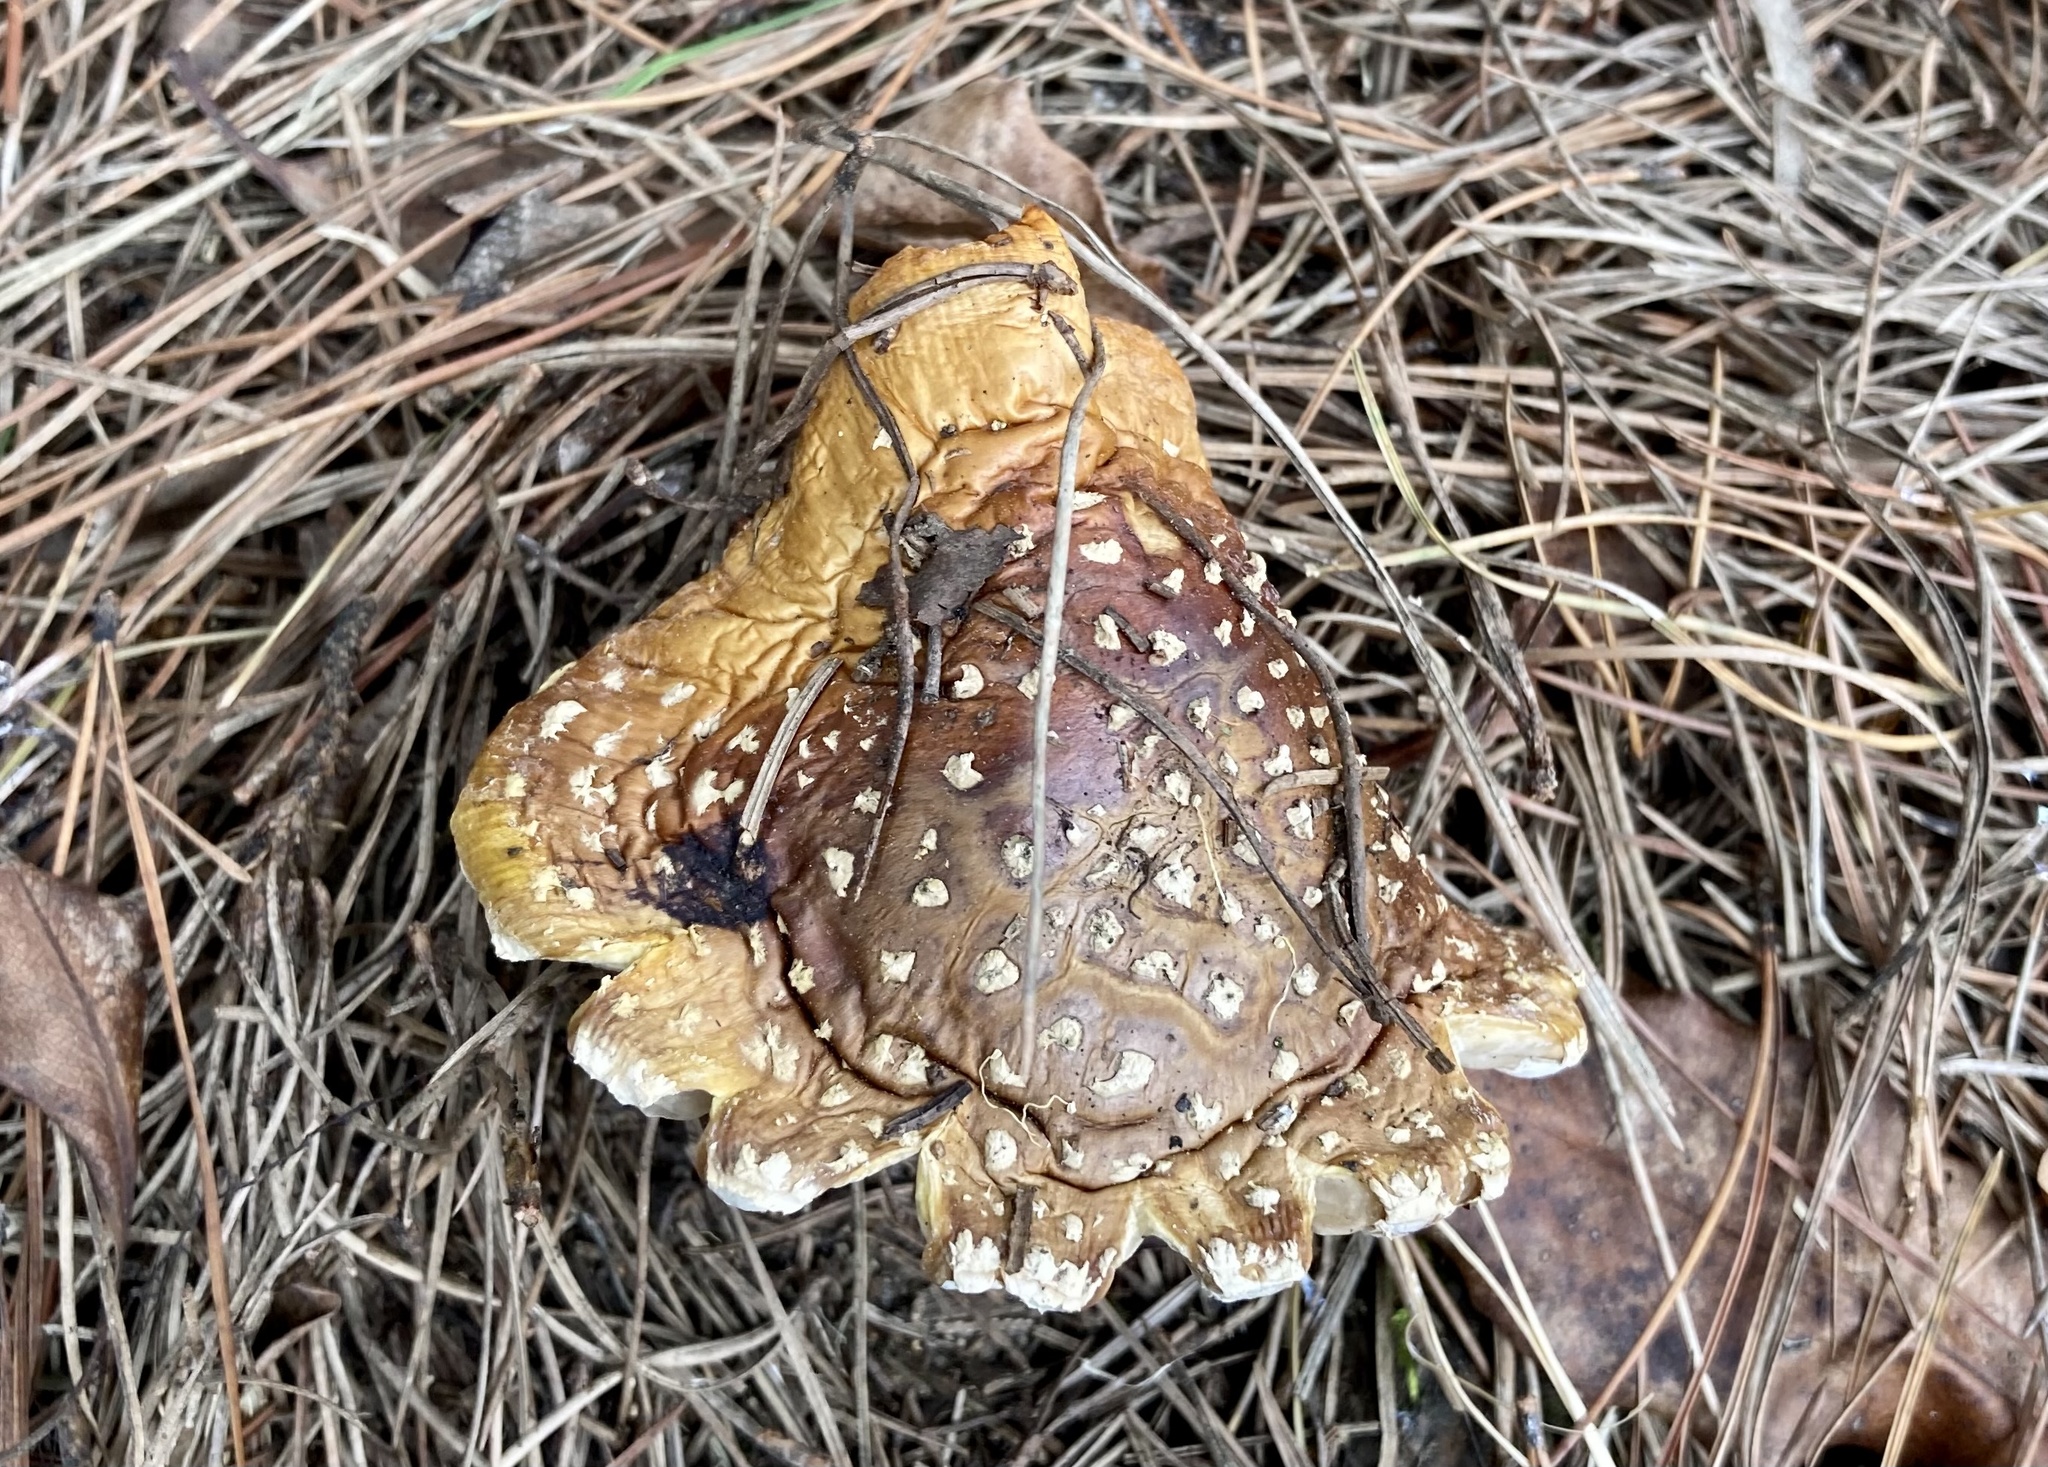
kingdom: Fungi
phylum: Basidiomycota
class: Agaricomycetes
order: Agaricales
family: Amanitaceae
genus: Amanita
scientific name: Amanita muscaria
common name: Fly agaric
